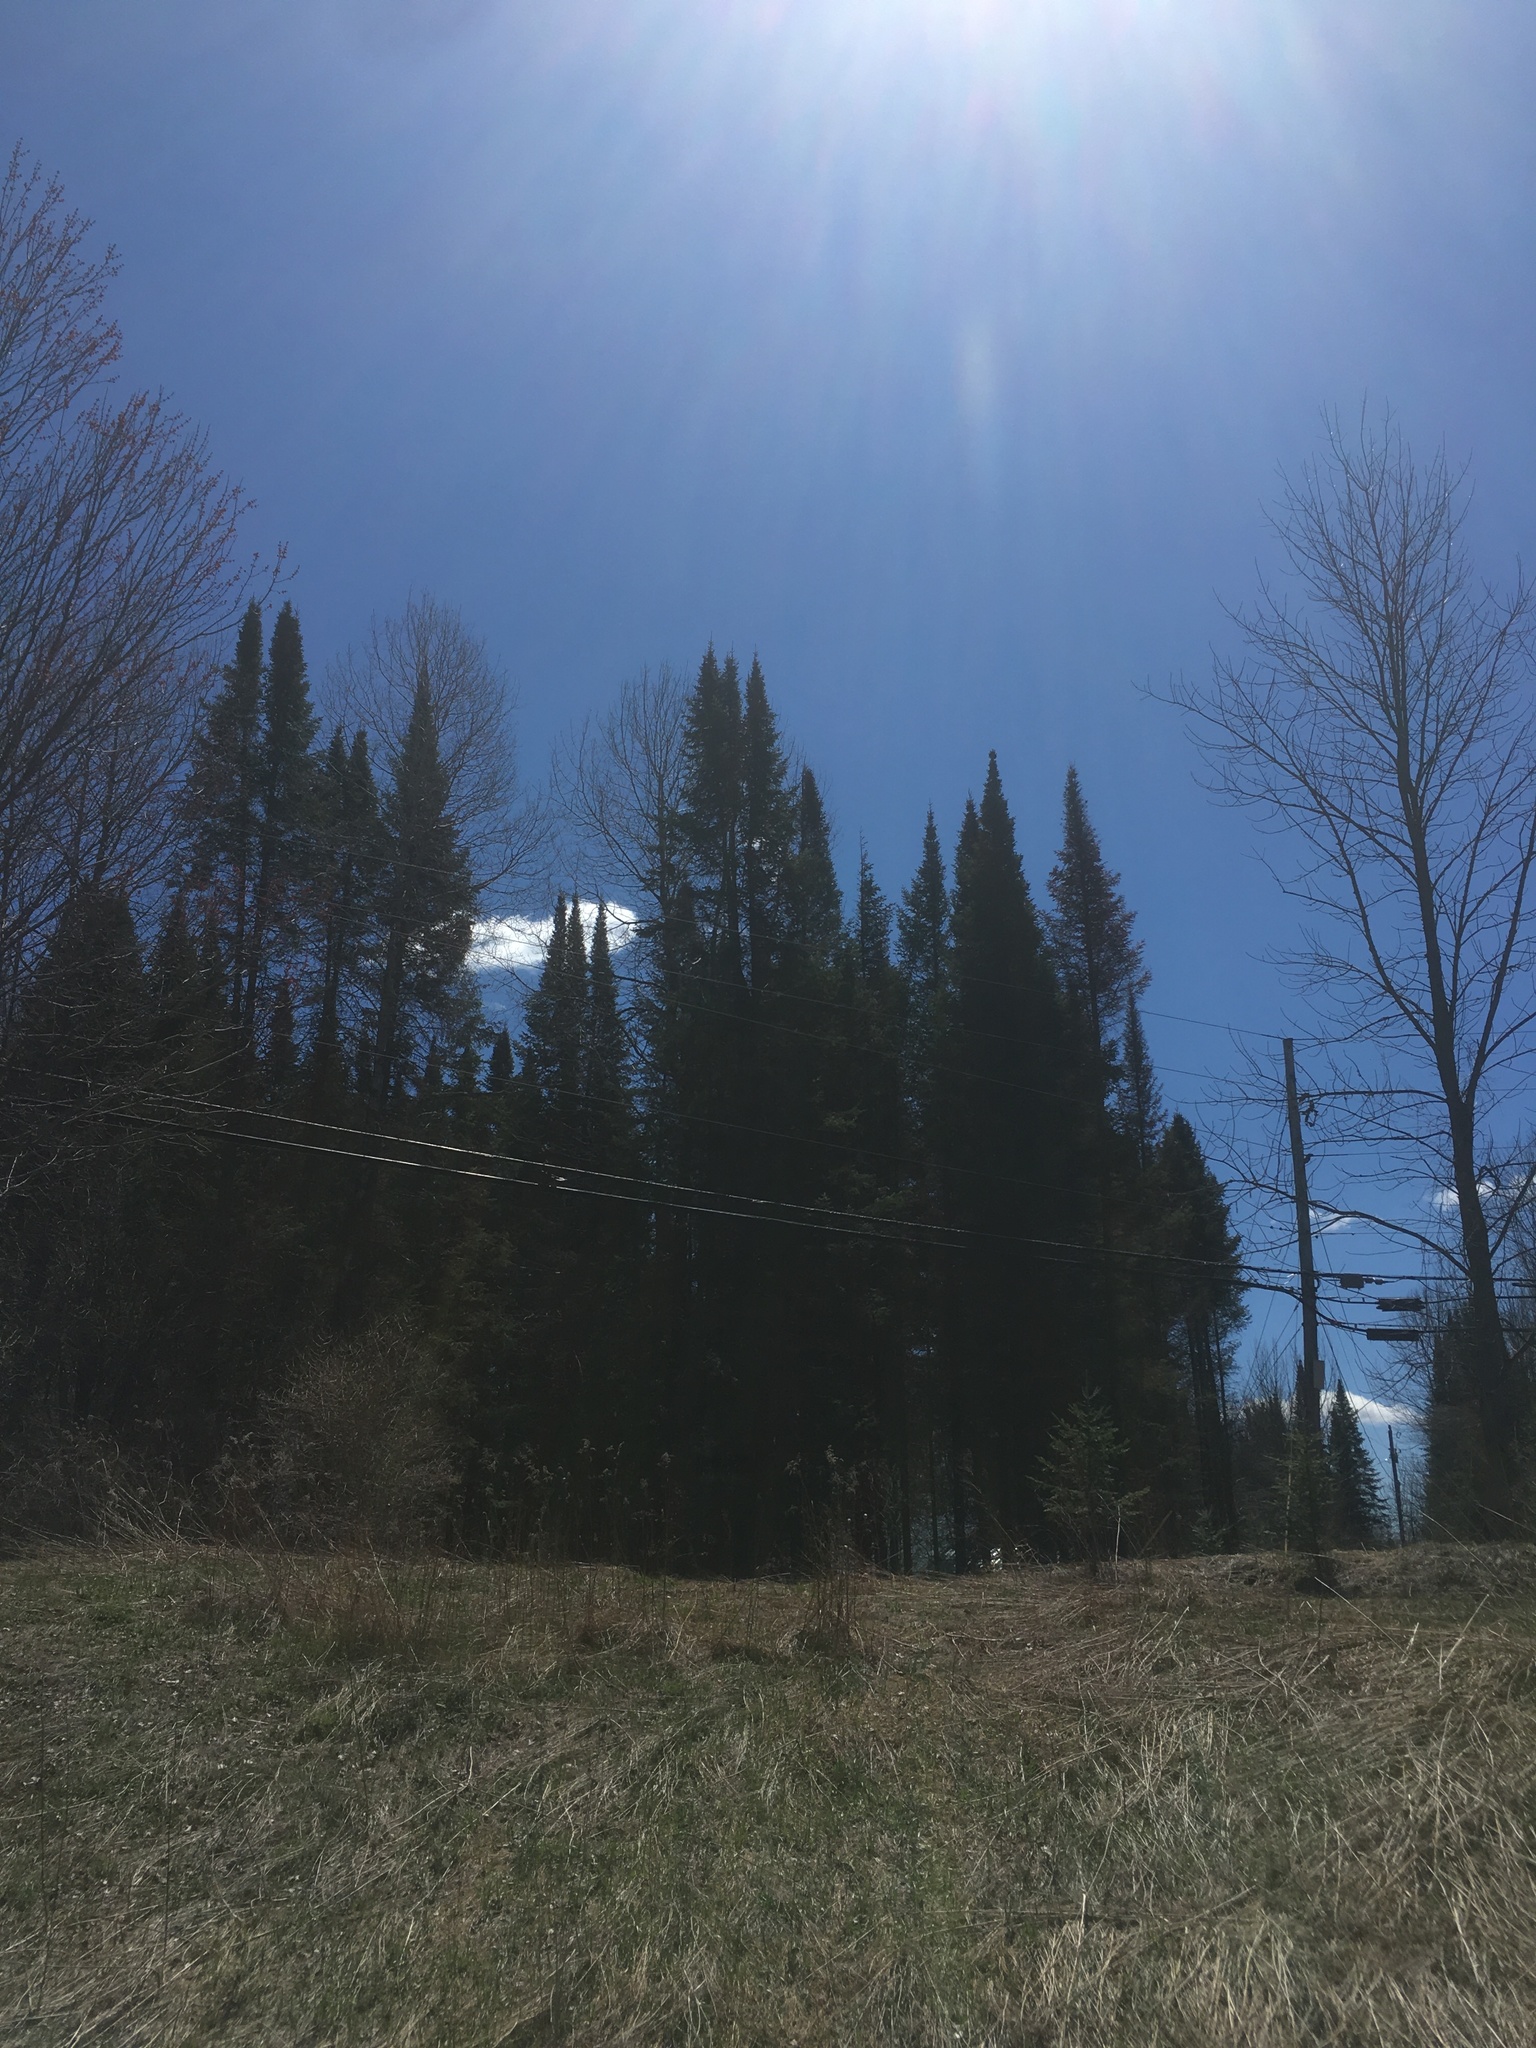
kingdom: Plantae
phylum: Tracheophyta
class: Pinopsida
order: Pinales
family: Pinaceae
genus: Abies
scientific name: Abies balsamea
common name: Balsam fir
